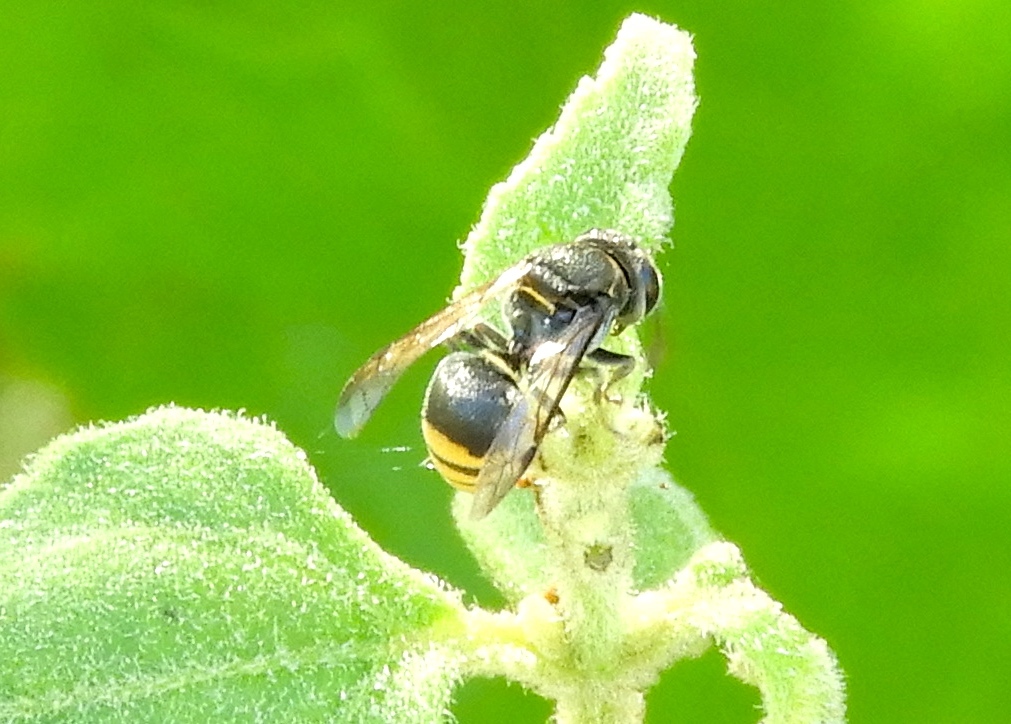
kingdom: Animalia
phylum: Arthropoda
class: Insecta
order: Hymenoptera
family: Vespidae
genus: Brachygastra
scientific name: Brachygastra azteca
